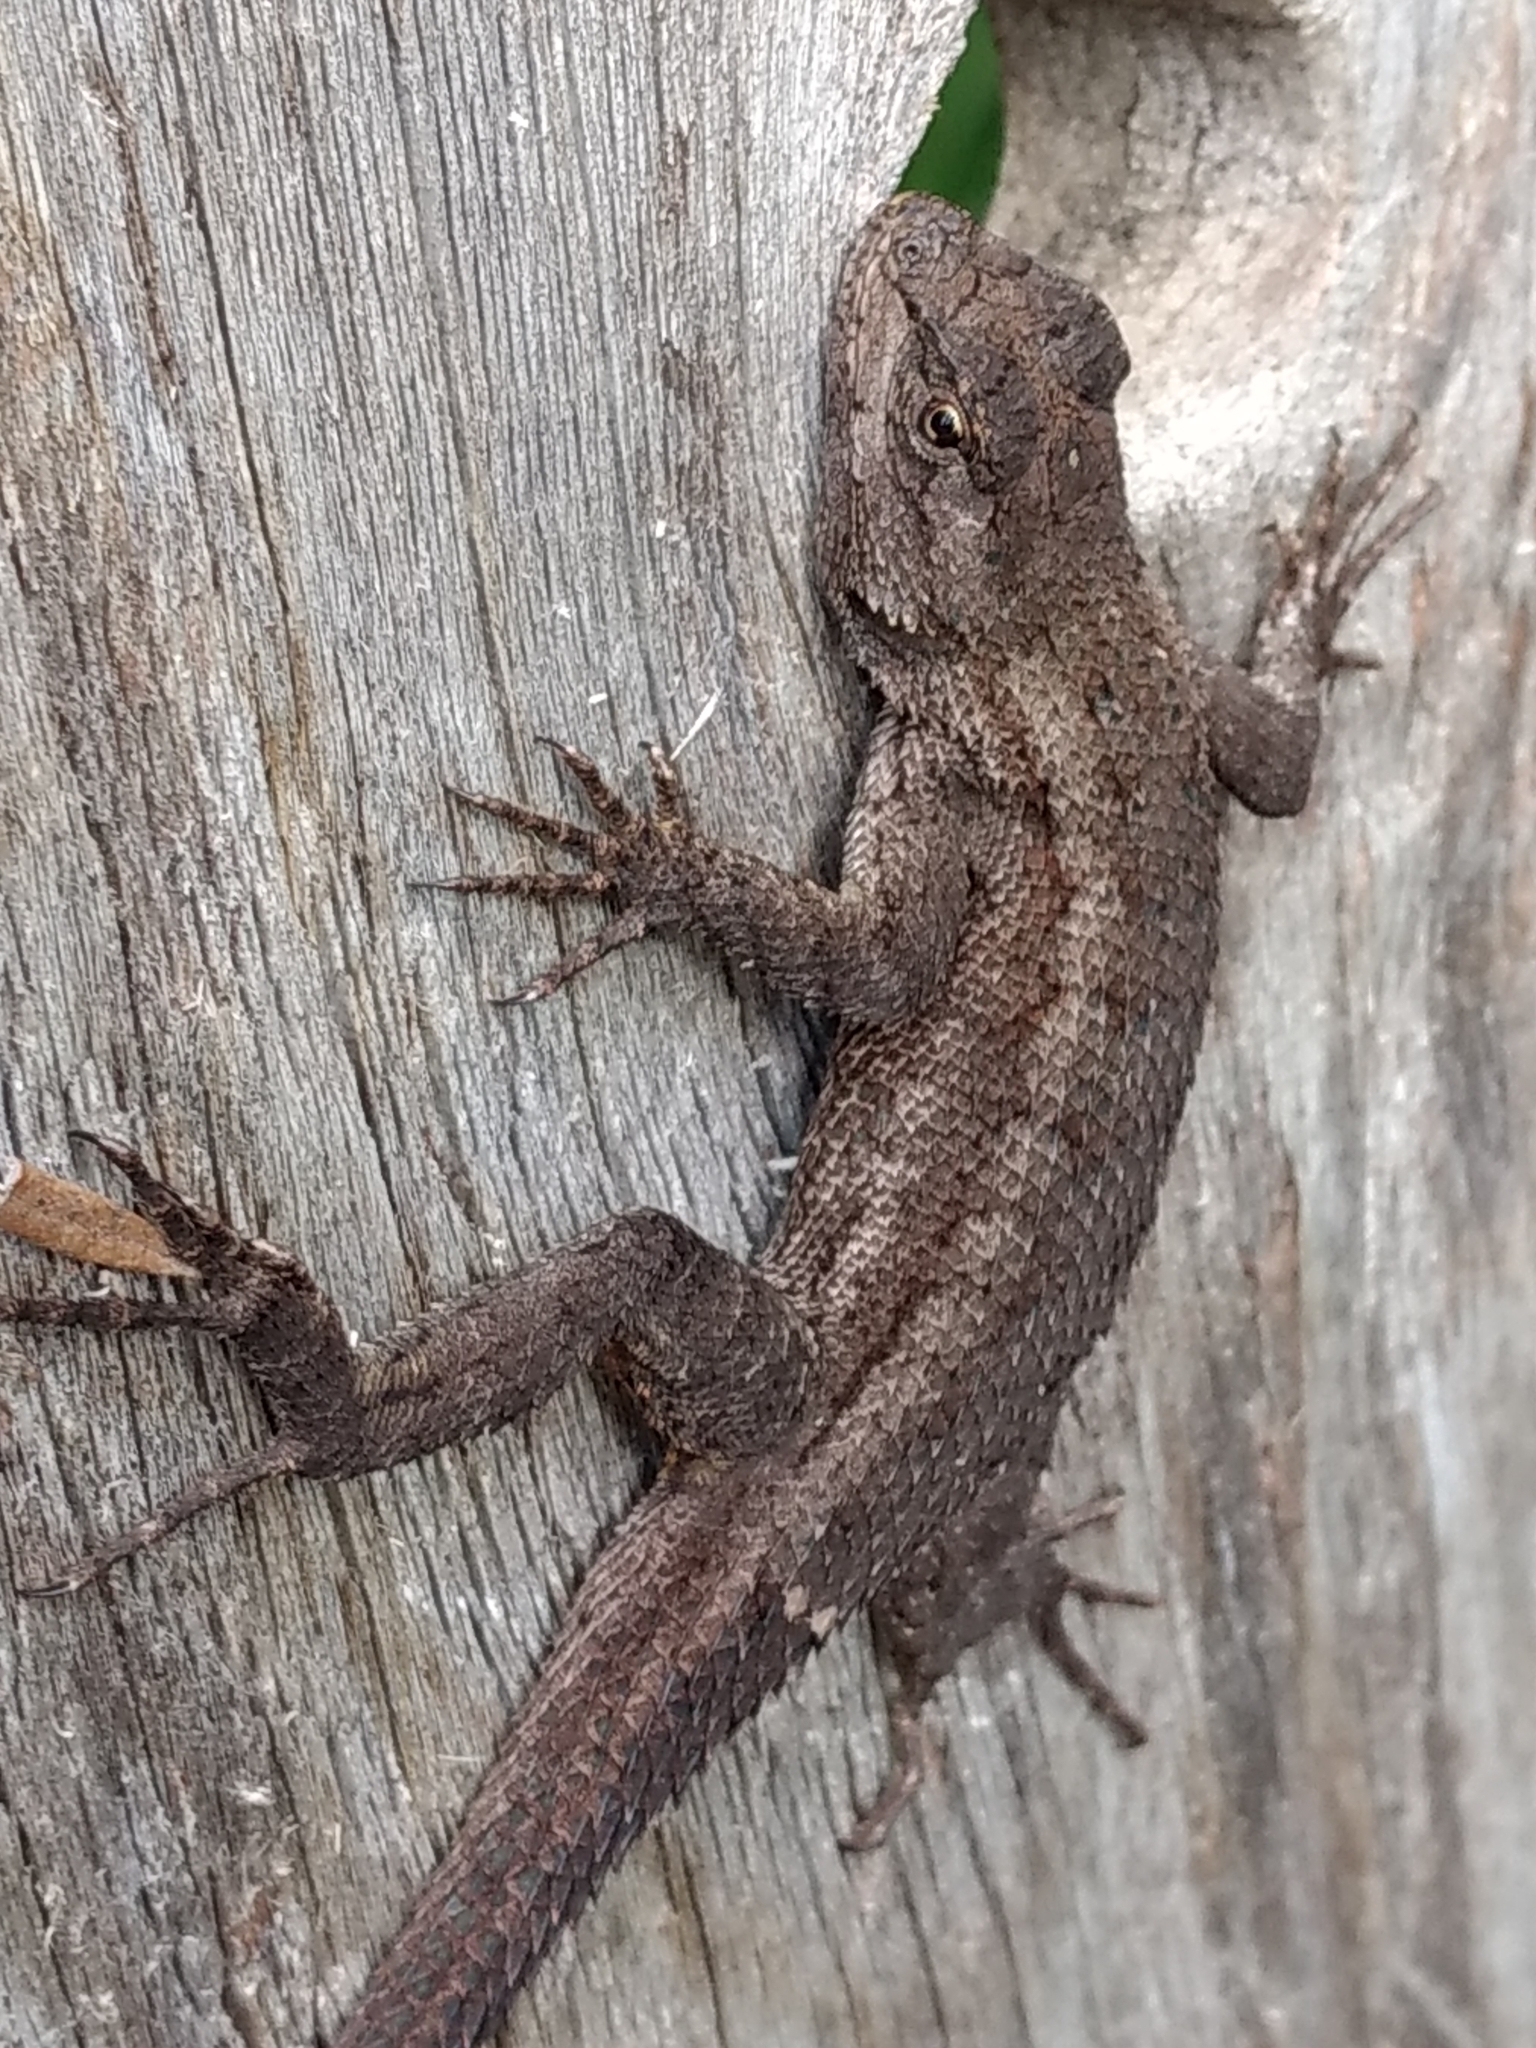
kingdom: Animalia
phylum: Chordata
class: Squamata
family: Phrynosomatidae
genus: Sceloporus
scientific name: Sceloporus occidentalis
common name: Western fence lizard
